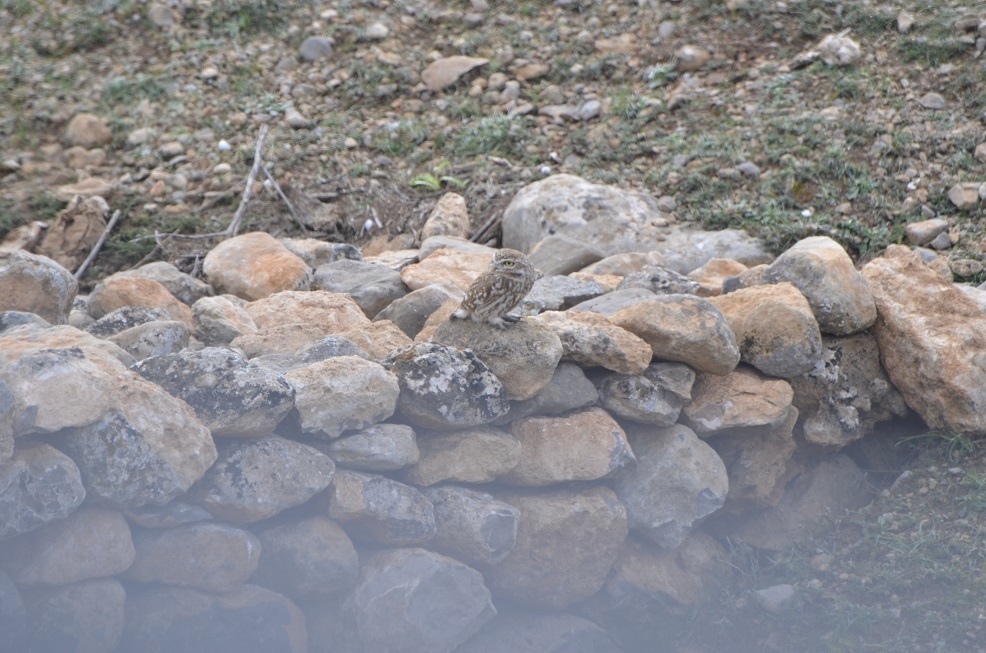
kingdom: Animalia
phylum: Chordata
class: Aves
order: Strigiformes
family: Strigidae
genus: Athene
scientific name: Athene noctua
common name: Little owl
